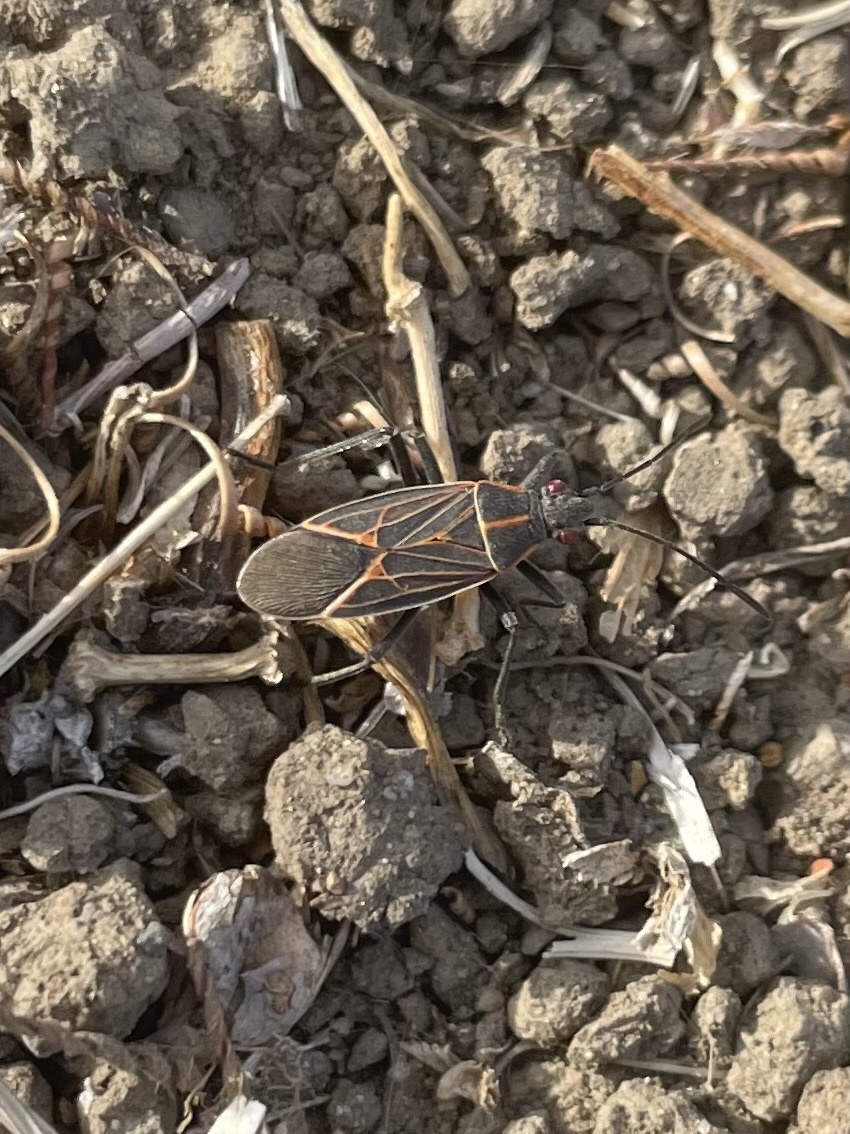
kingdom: Animalia
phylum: Arthropoda
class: Insecta
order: Hemiptera
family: Rhopalidae
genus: Boisea
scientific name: Boisea rubrolineata
